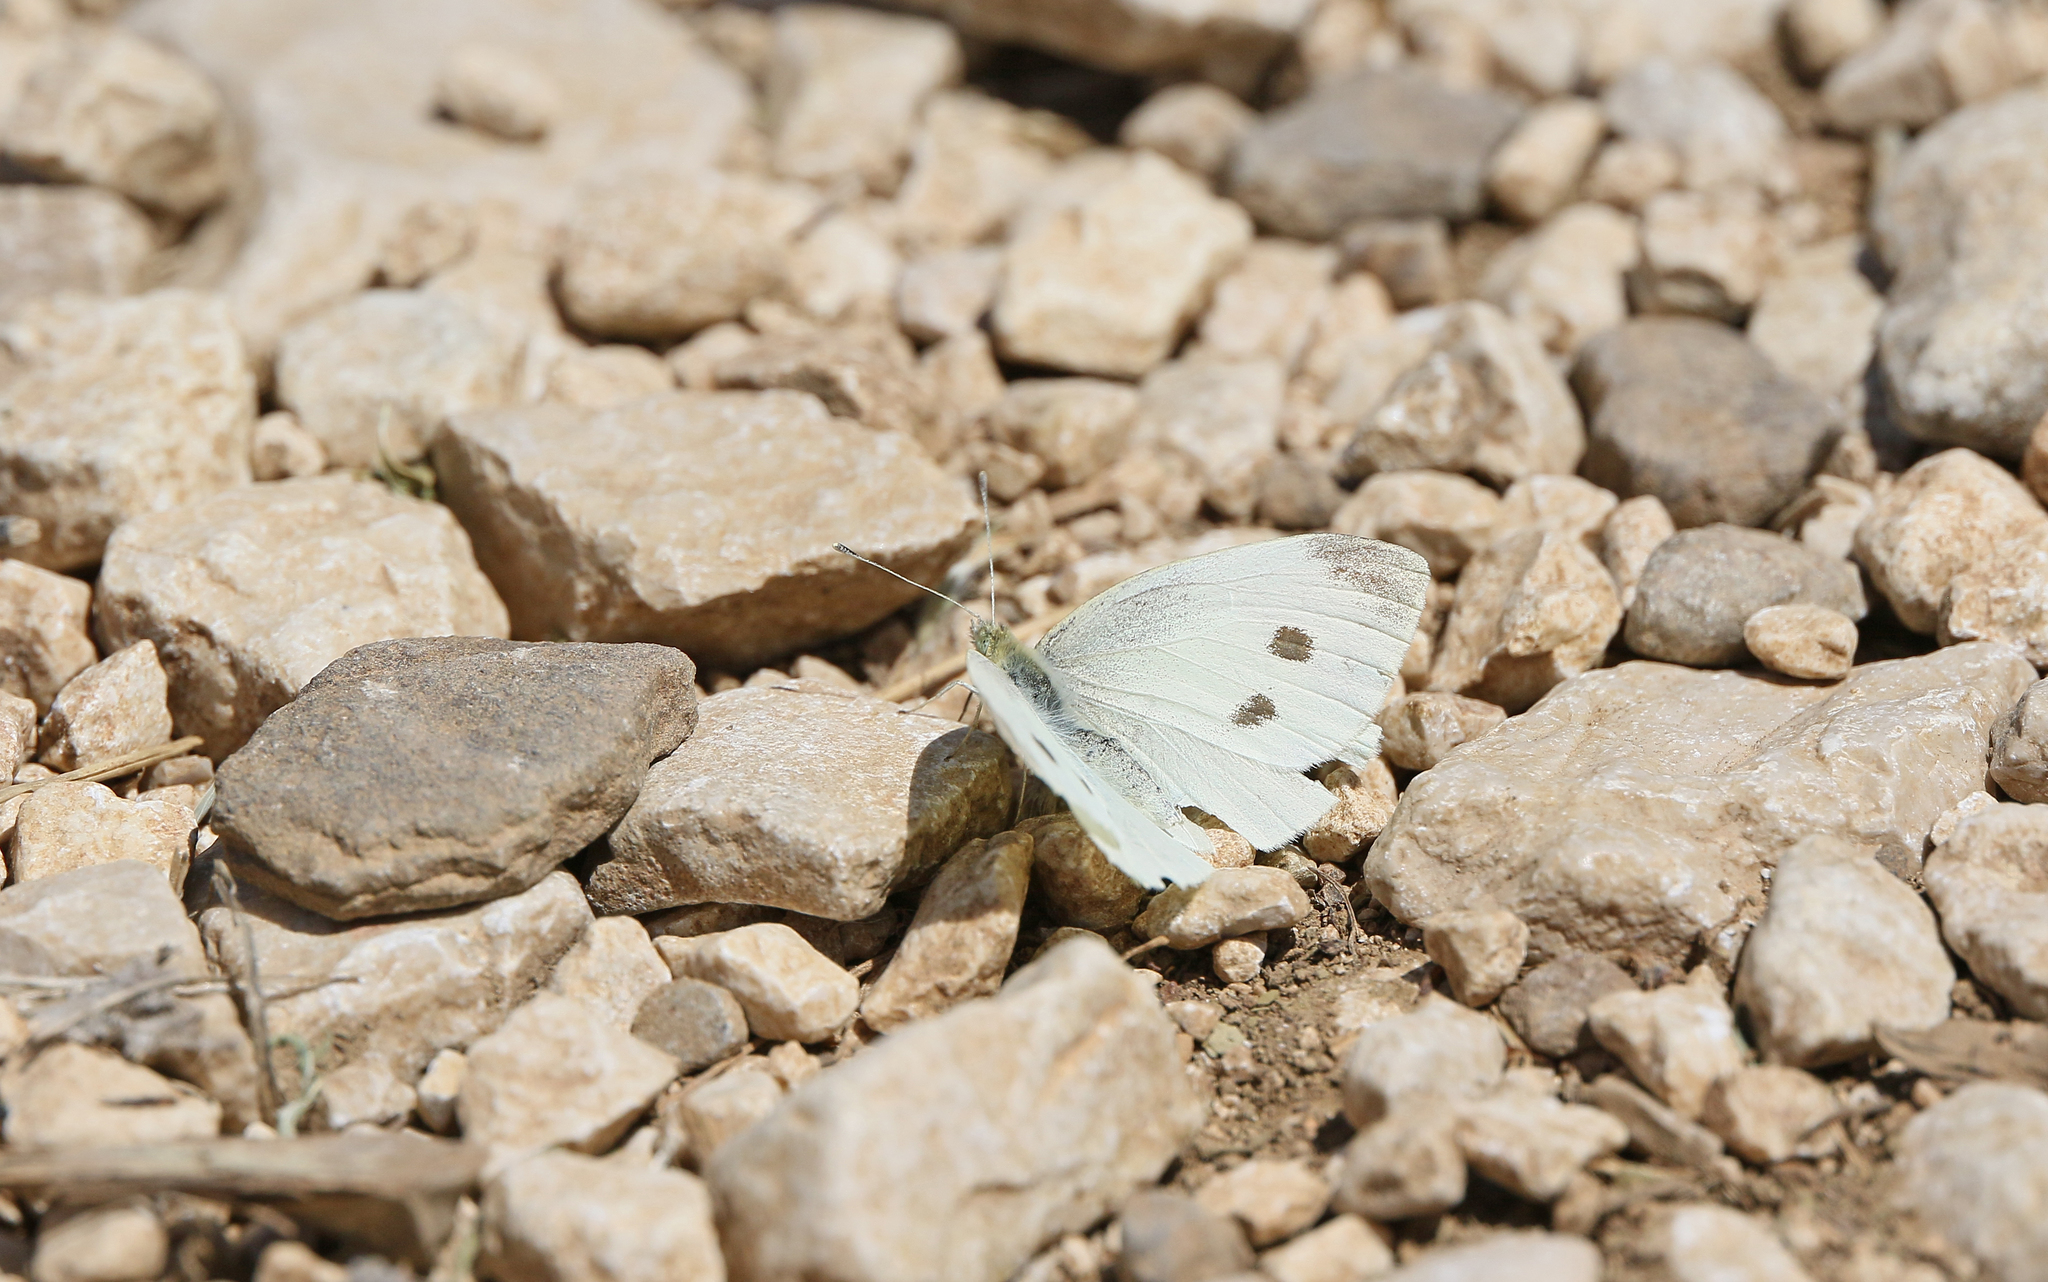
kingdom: Animalia
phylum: Arthropoda
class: Insecta
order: Lepidoptera
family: Pieridae
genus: Pieris
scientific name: Pieris rapae
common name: Small white
